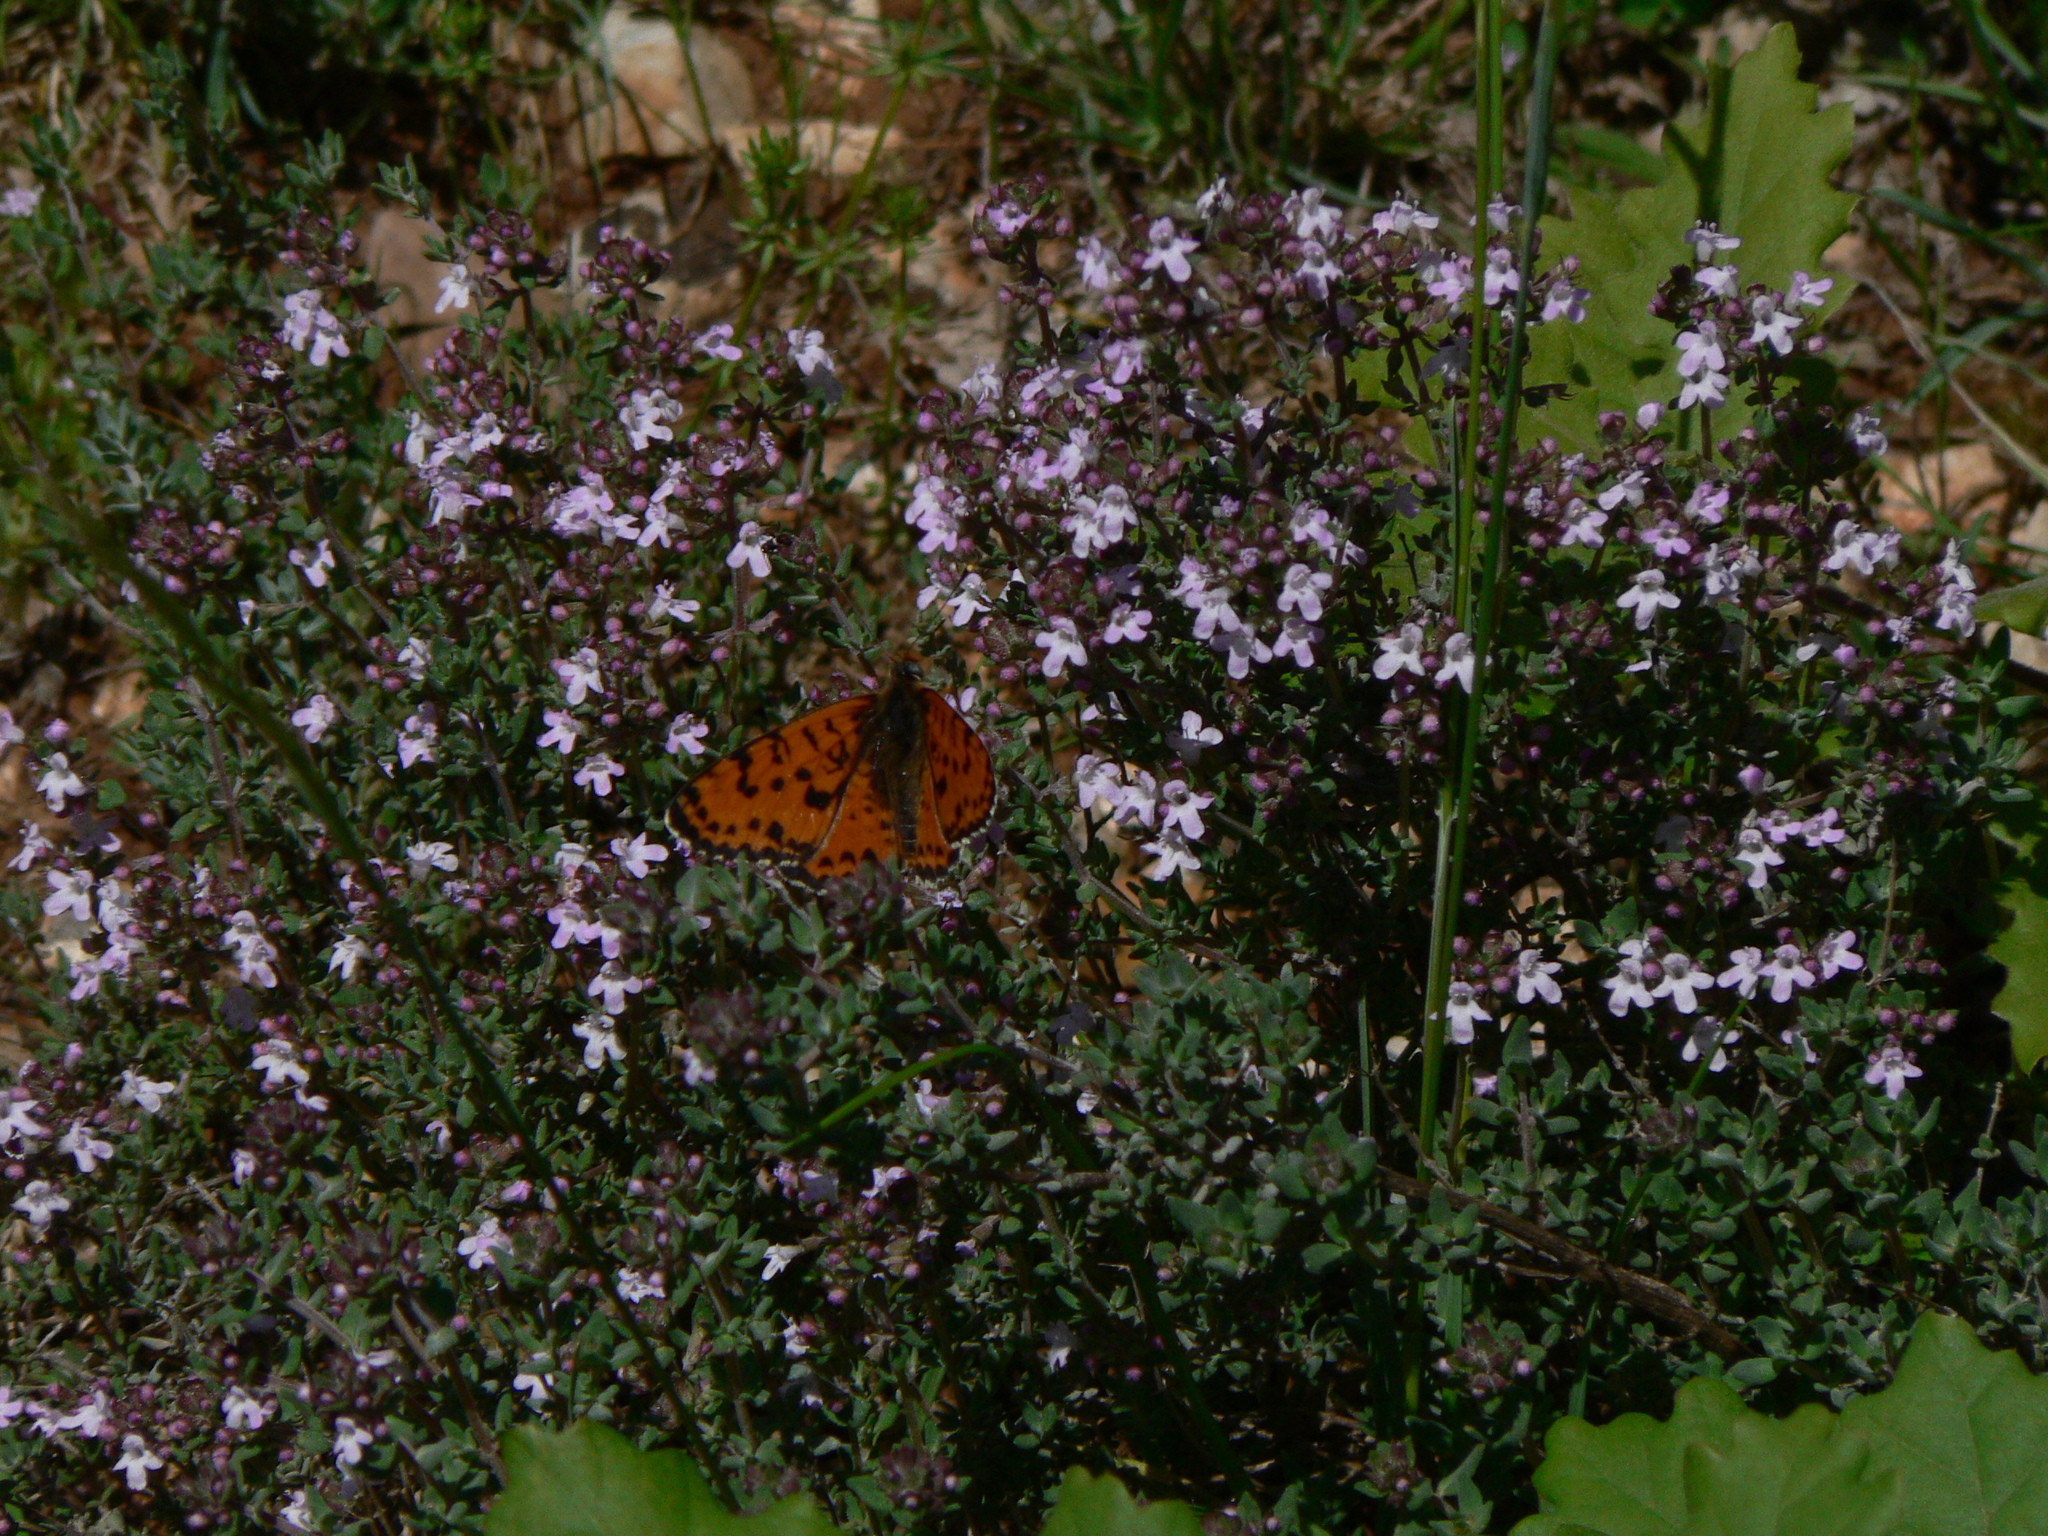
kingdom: Animalia
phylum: Arthropoda
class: Insecta
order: Lepidoptera
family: Nymphalidae
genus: Melitaea
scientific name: Melitaea didyma
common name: Spotted fritillary
